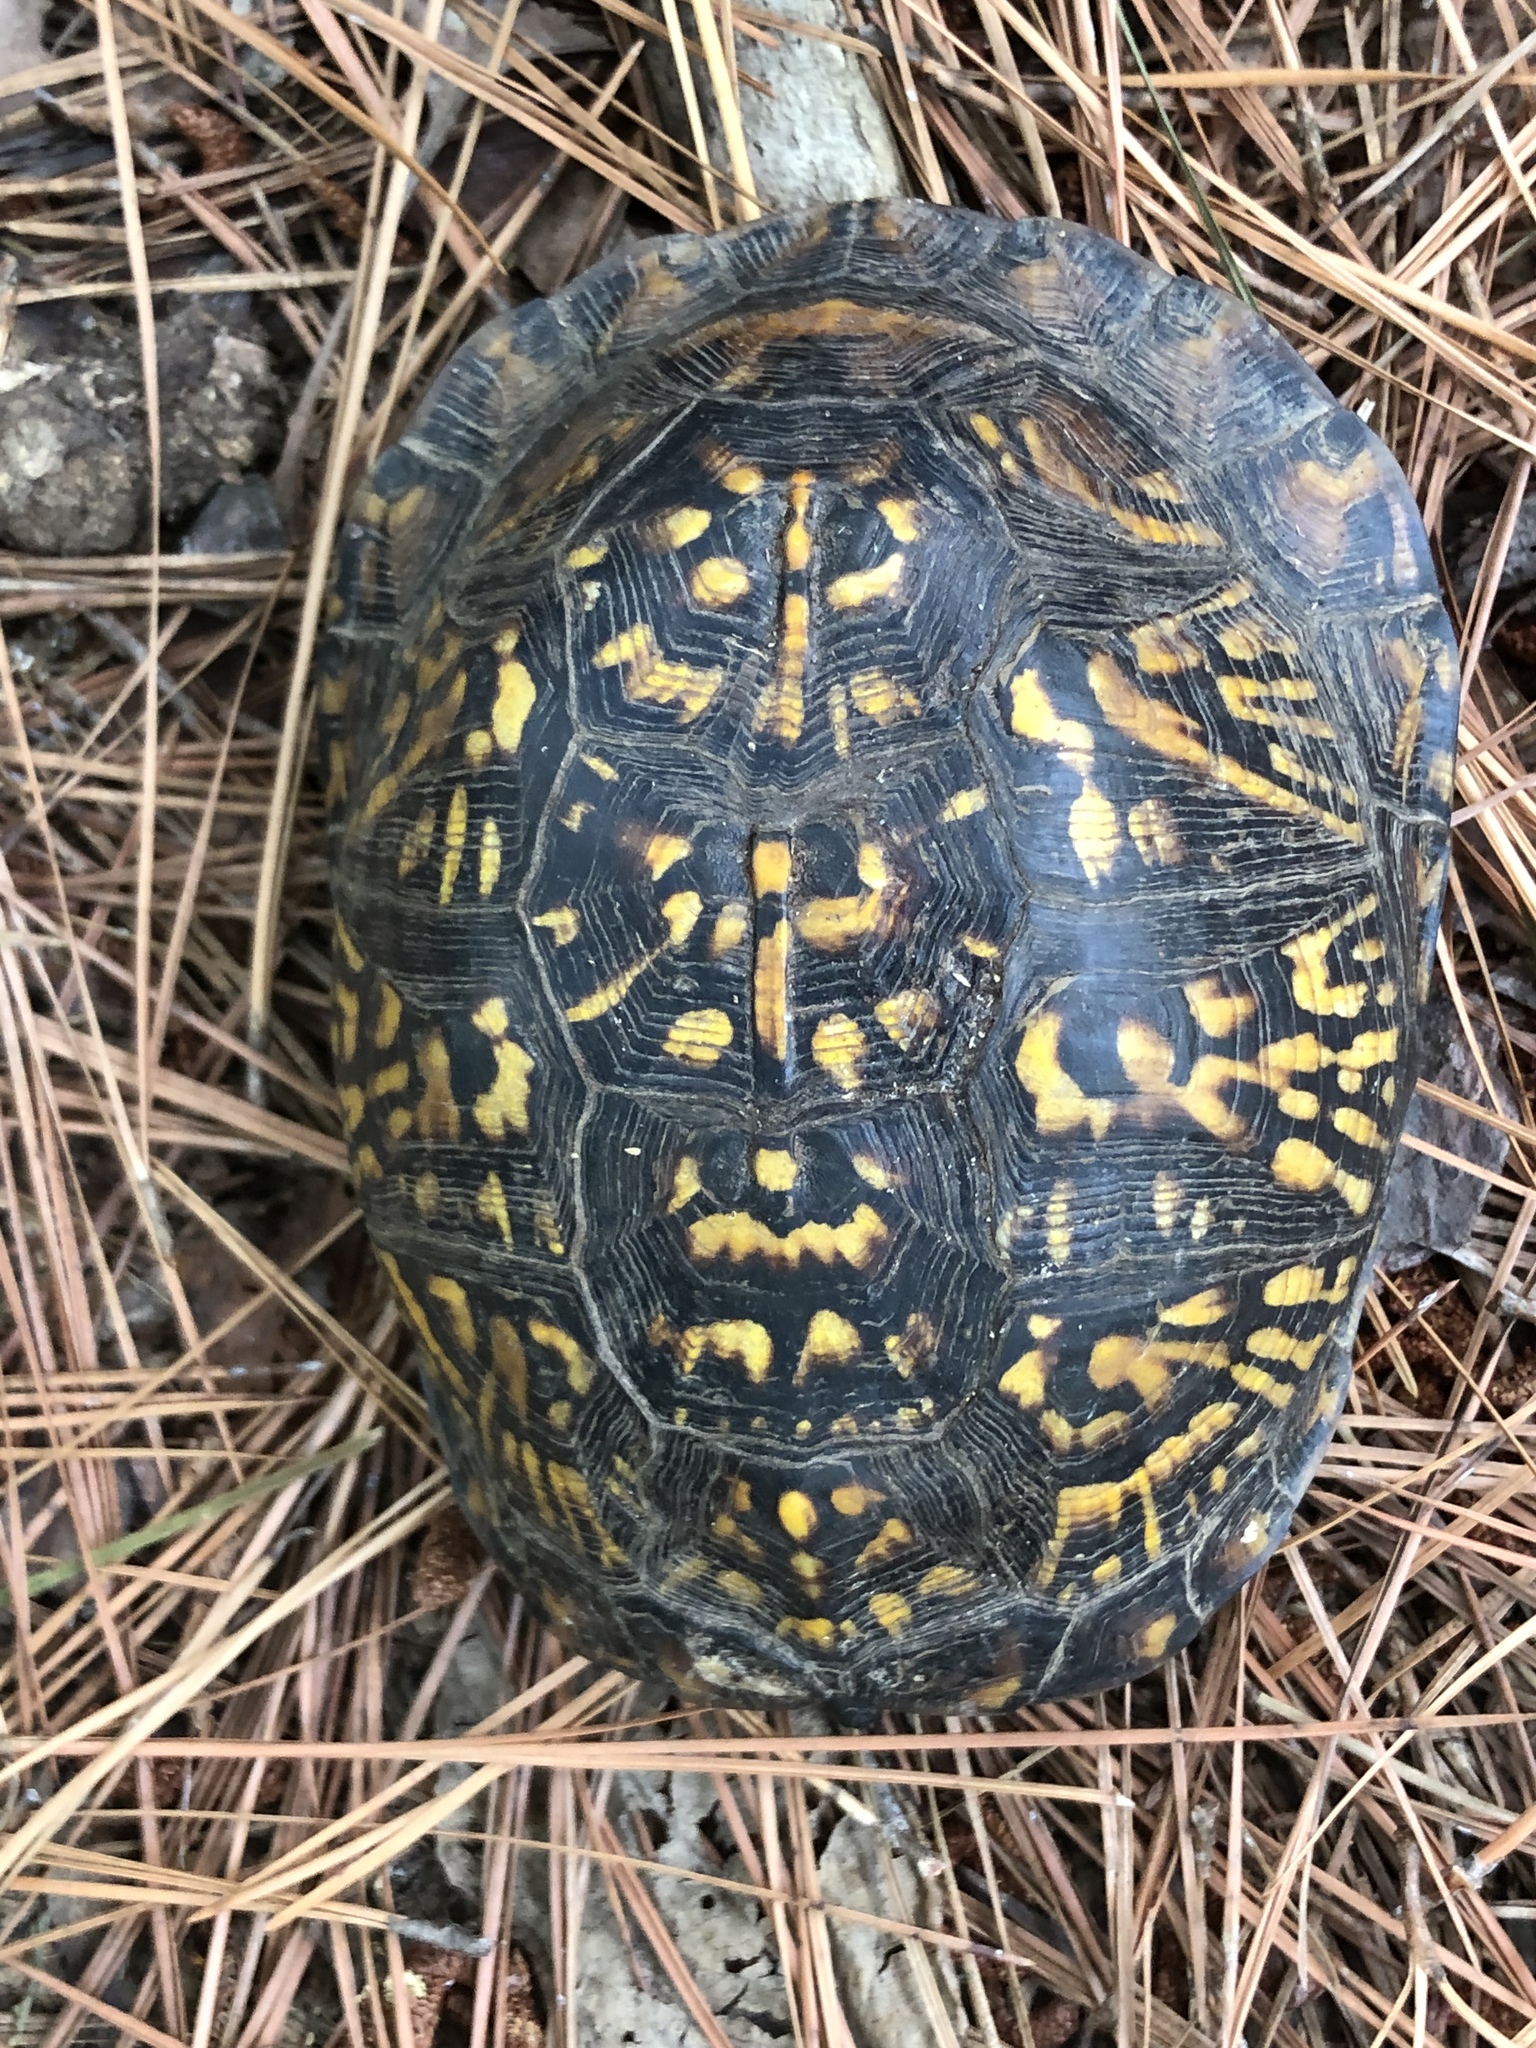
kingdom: Animalia
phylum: Chordata
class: Testudines
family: Emydidae
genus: Terrapene
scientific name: Terrapene carolina
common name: Common box turtle
